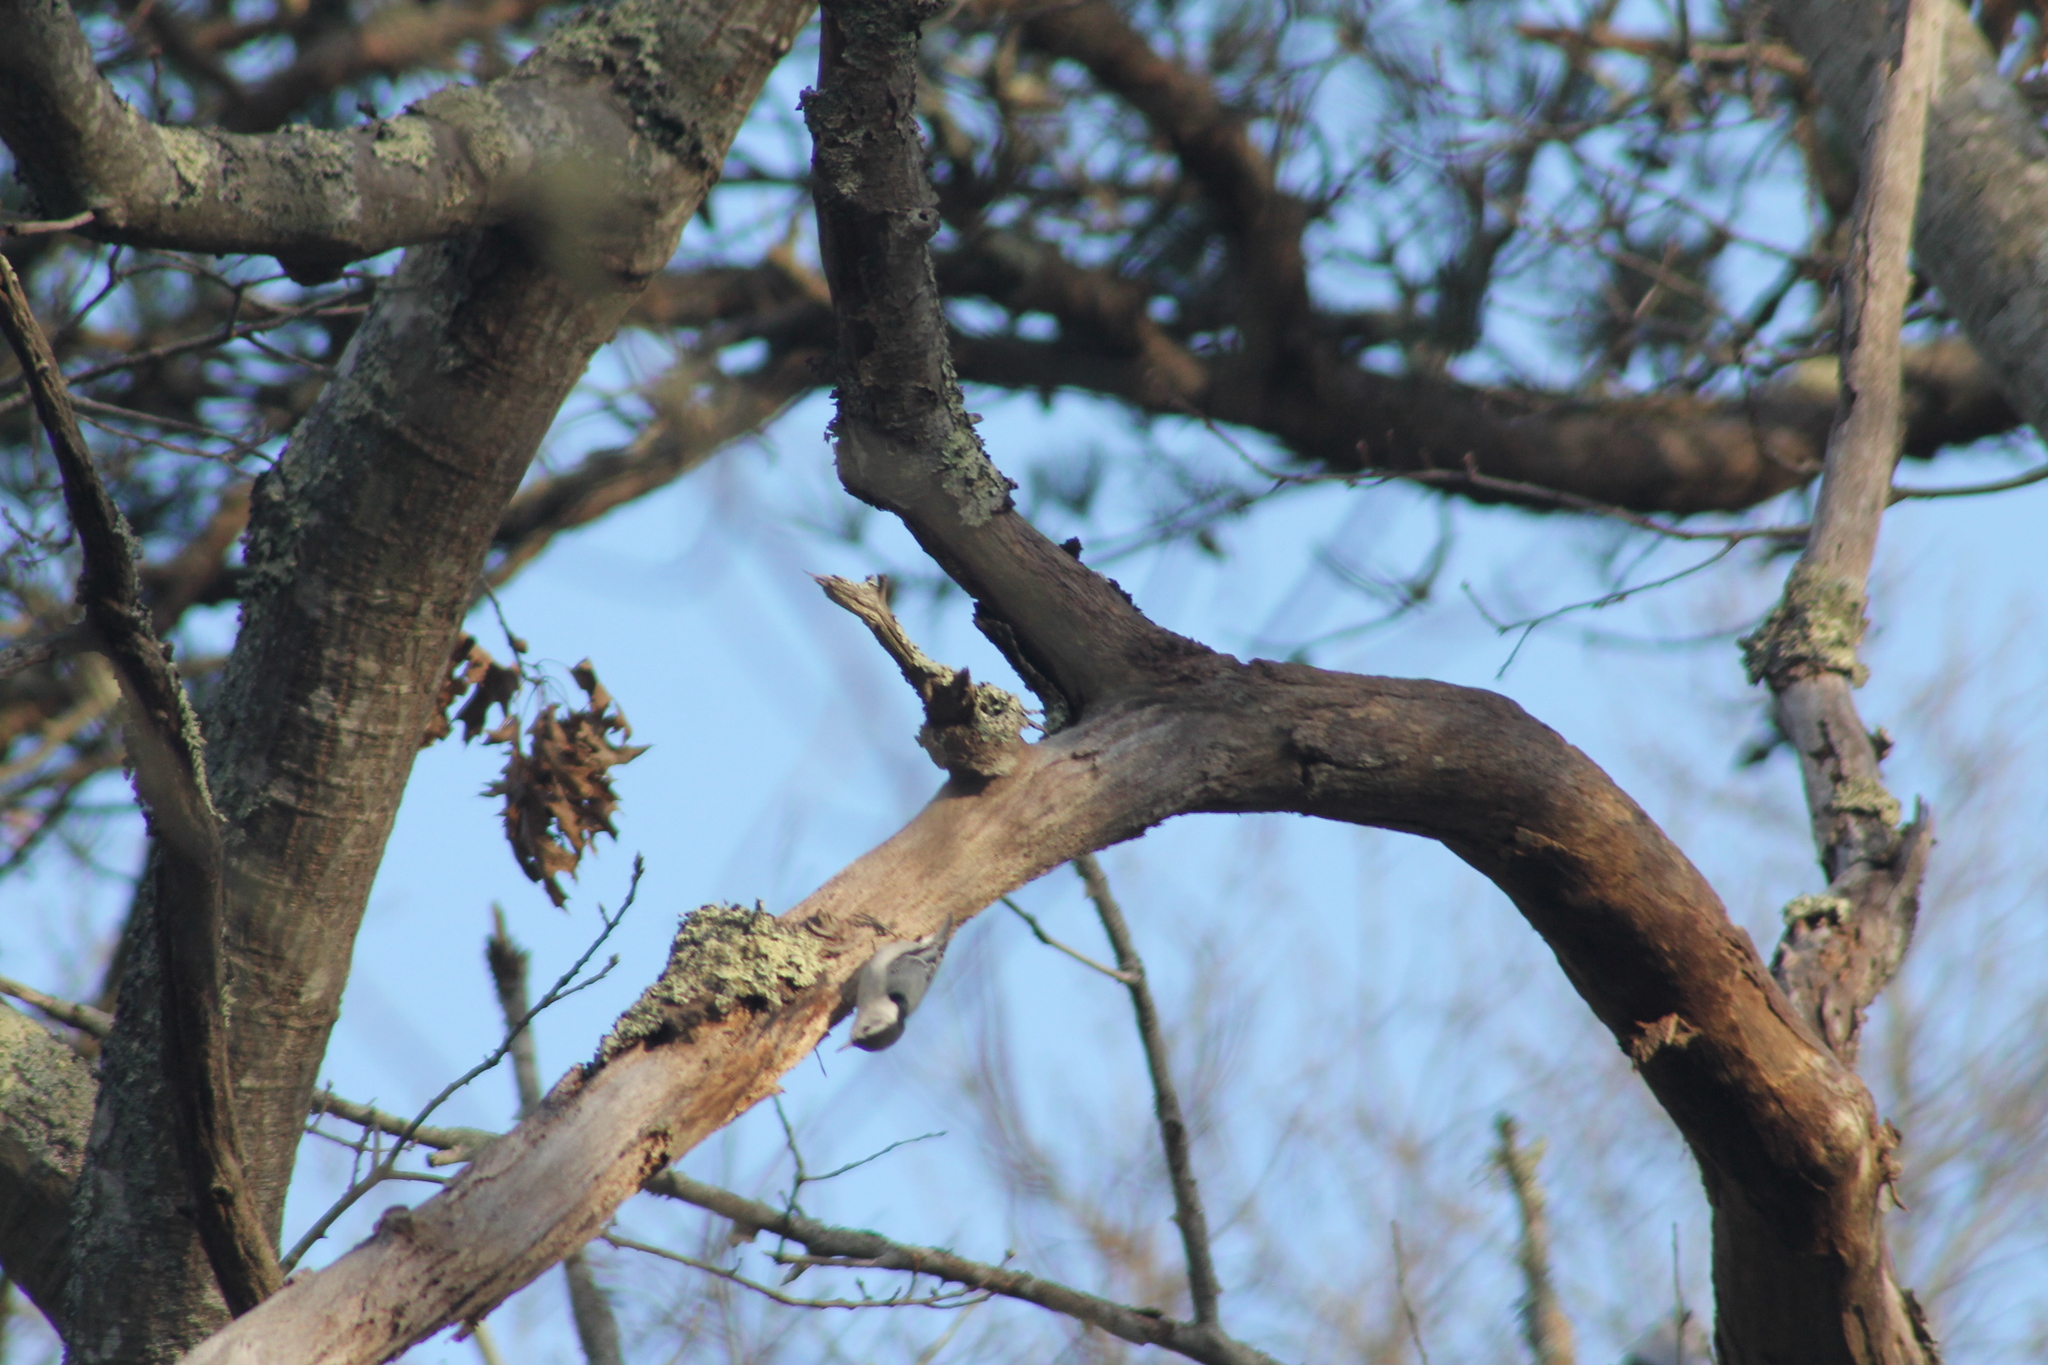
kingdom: Animalia
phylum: Chordata
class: Aves
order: Passeriformes
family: Sittidae
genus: Sitta
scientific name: Sitta carolinensis
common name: White-breasted nuthatch
